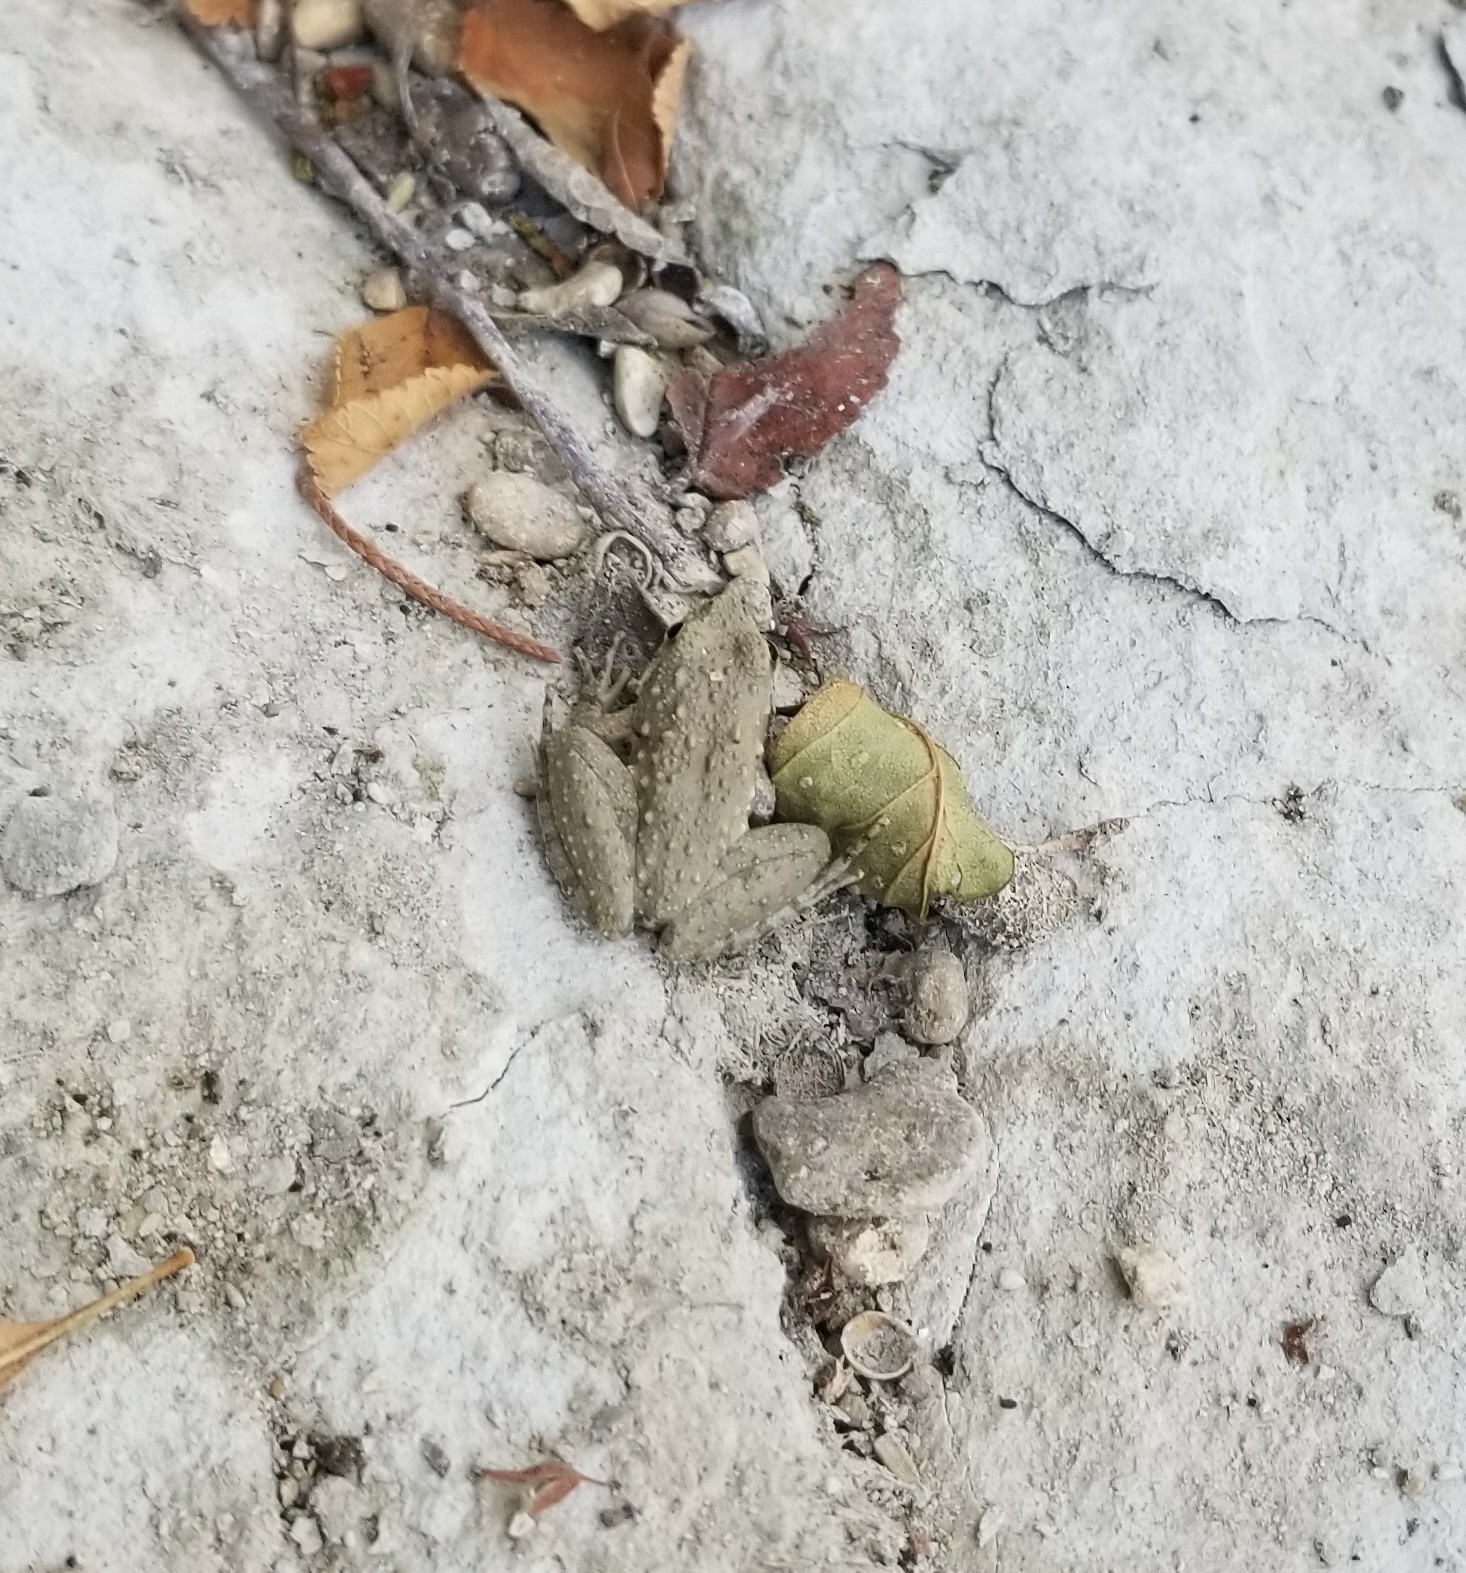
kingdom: Animalia
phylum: Chordata
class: Amphibia
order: Anura
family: Hylidae
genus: Acris
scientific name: Acris blanchardi
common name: Blanchard's cricket frog
